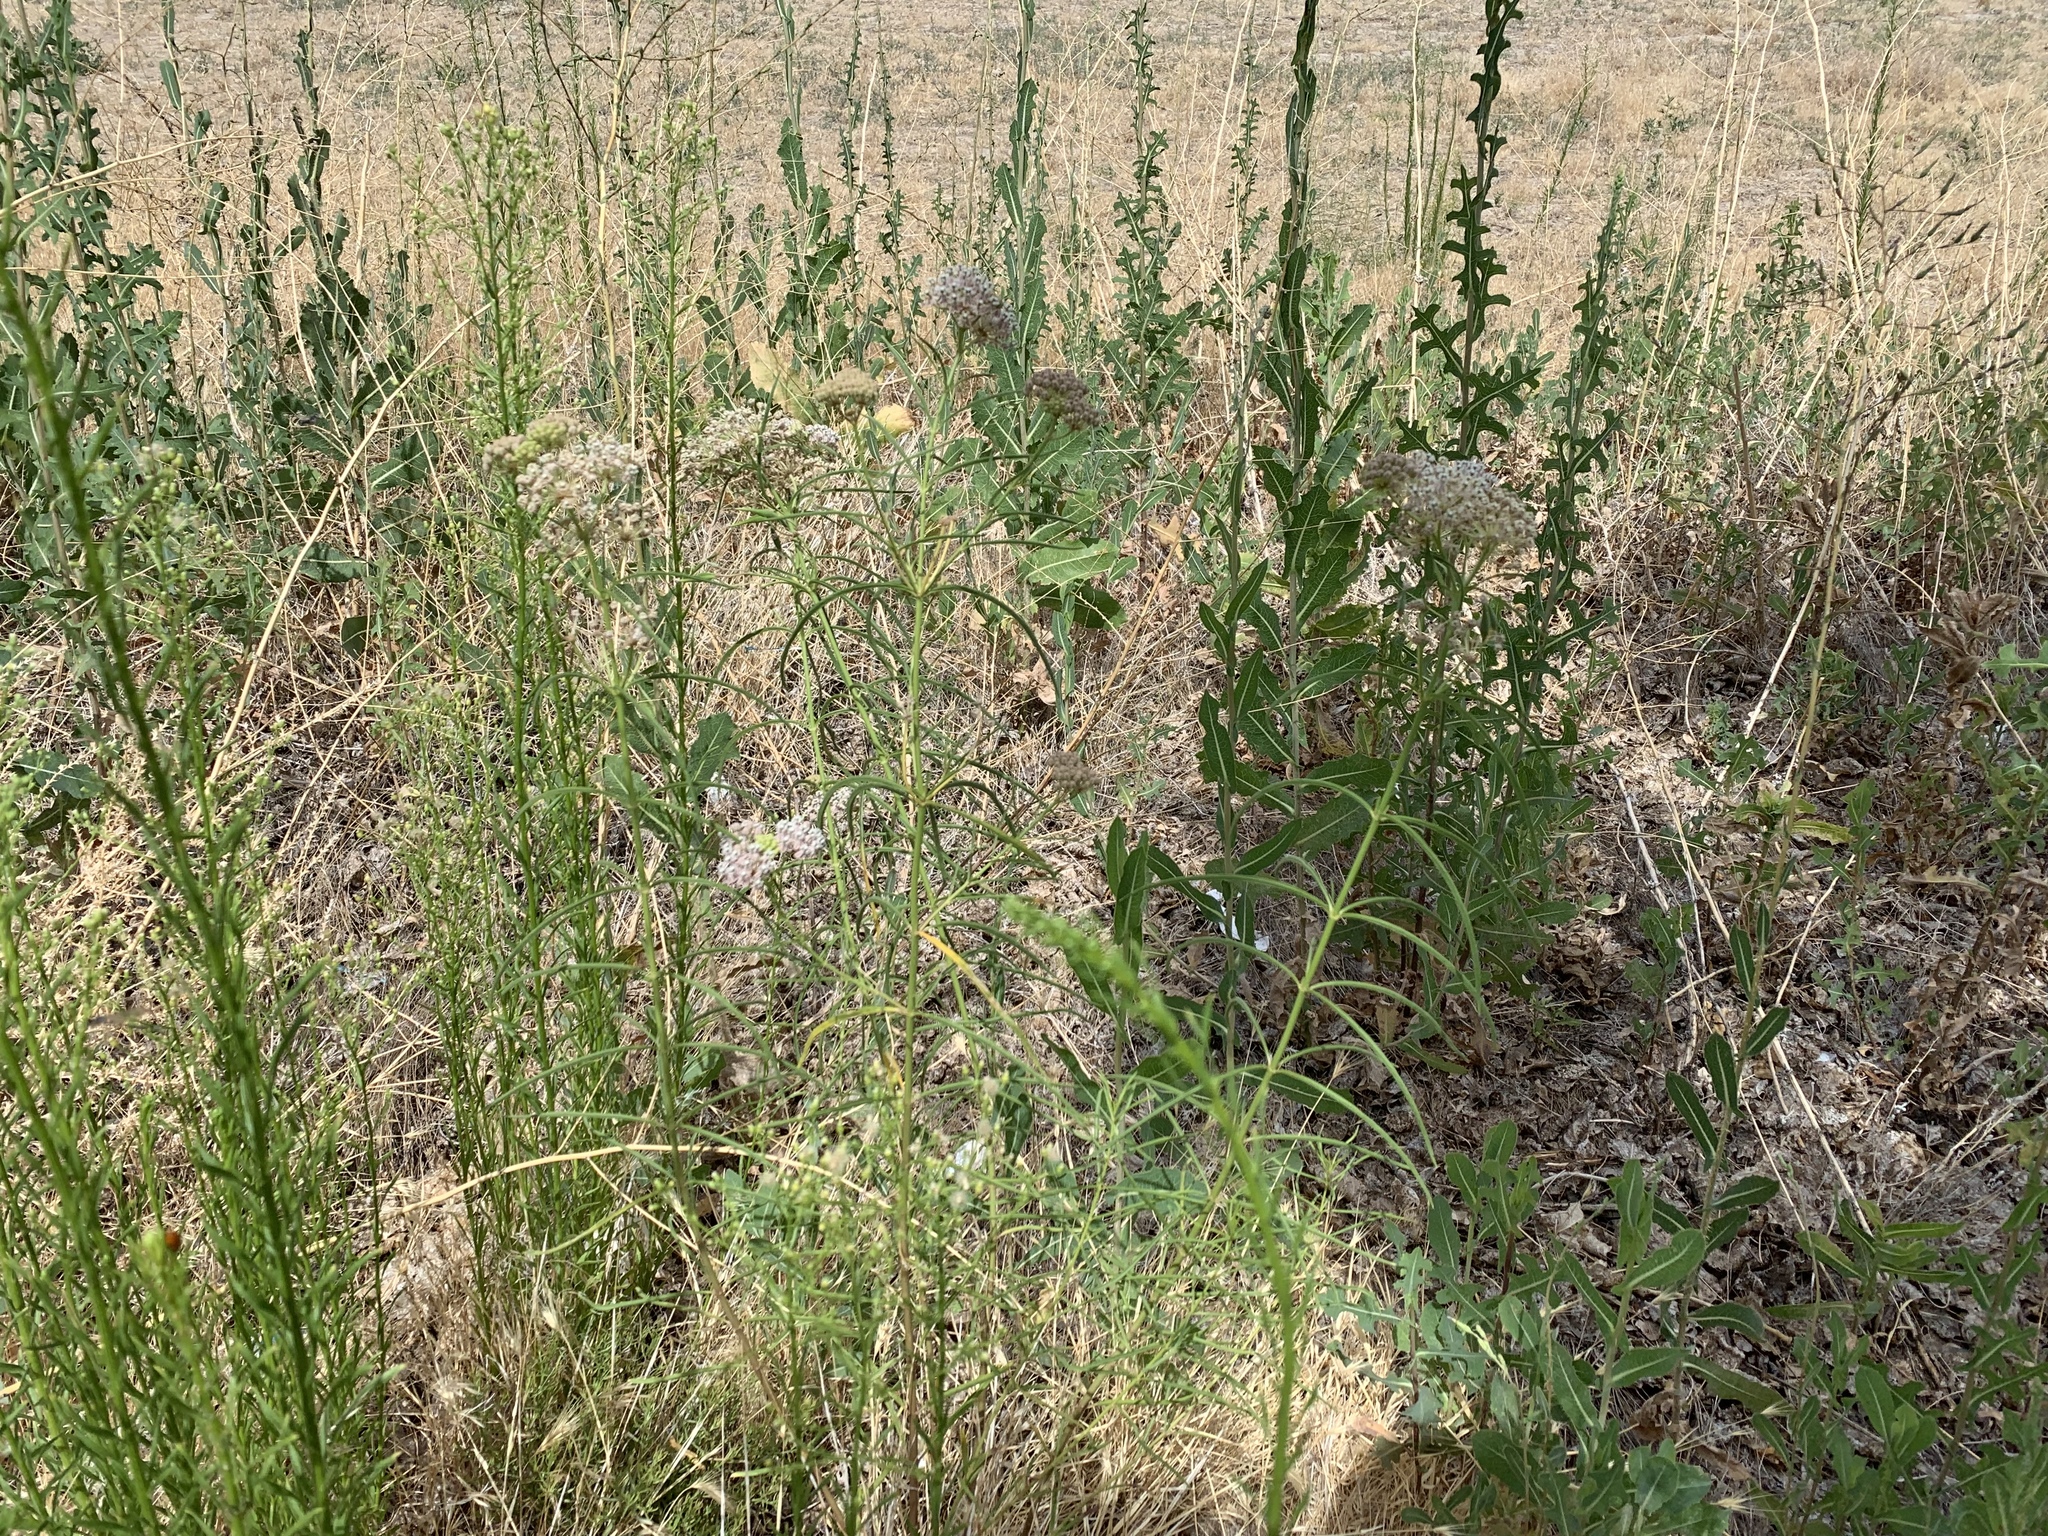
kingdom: Plantae
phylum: Tracheophyta
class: Magnoliopsida
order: Gentianales
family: Apocynaceae
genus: Asclepias
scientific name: Asclepias fascicularis
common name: Mexican milkweed
